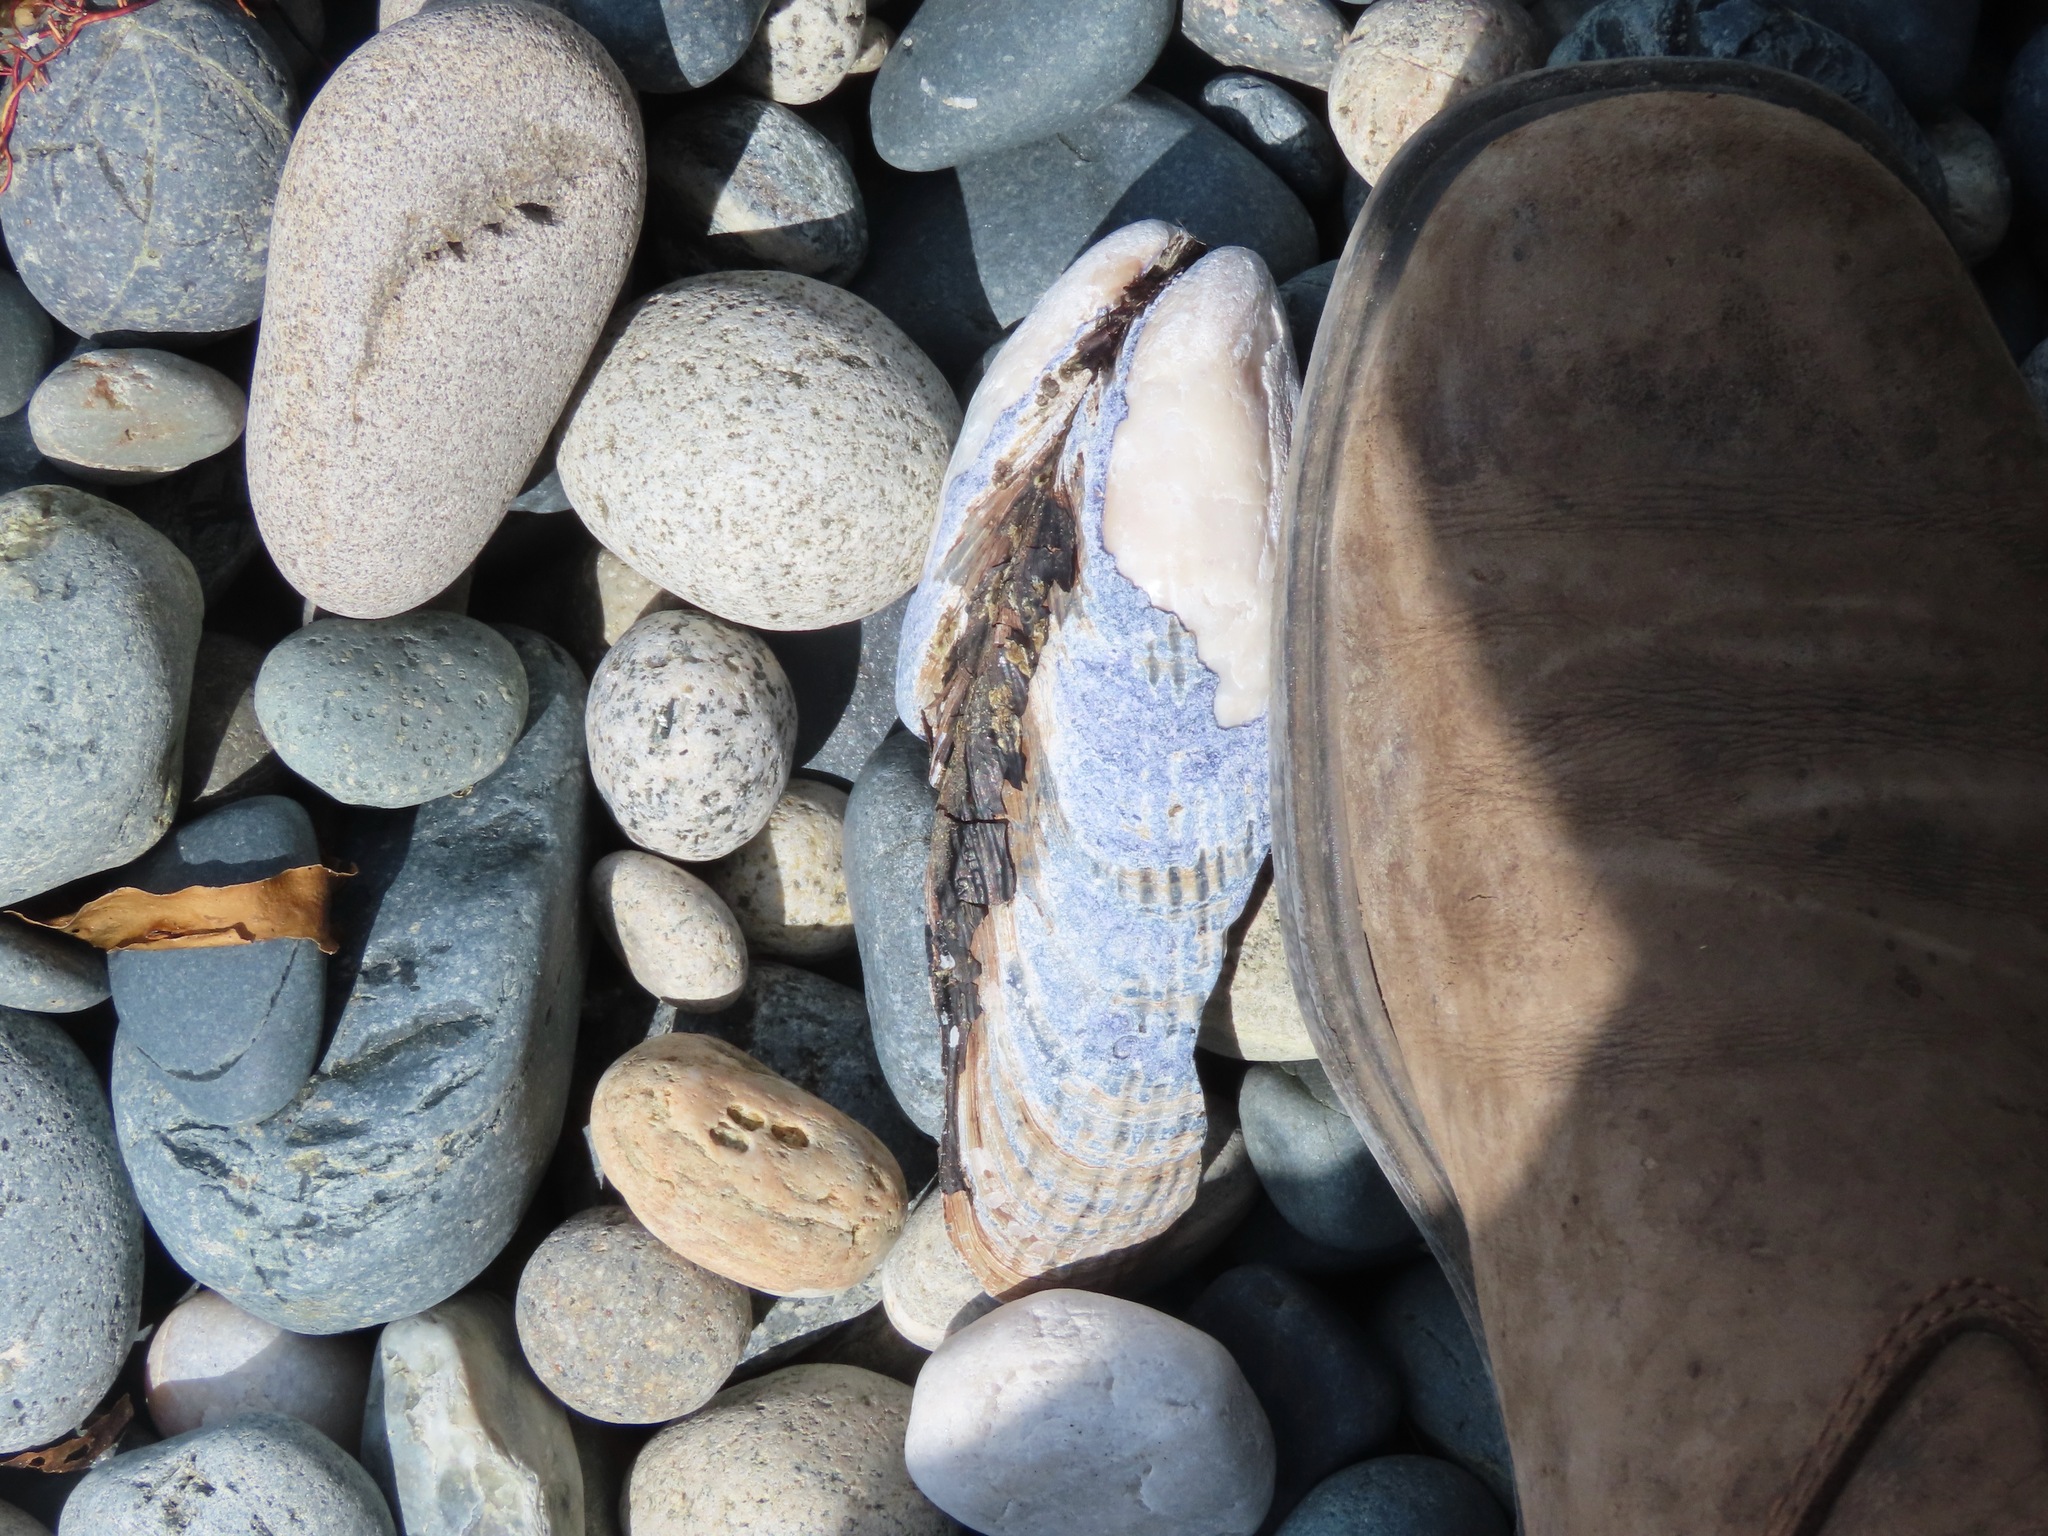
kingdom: Animalia
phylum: Mollusca
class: Bivalvia
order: Mytilida
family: Mytilidae
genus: Mytilus
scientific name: Mytilus californianus
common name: California mussel
